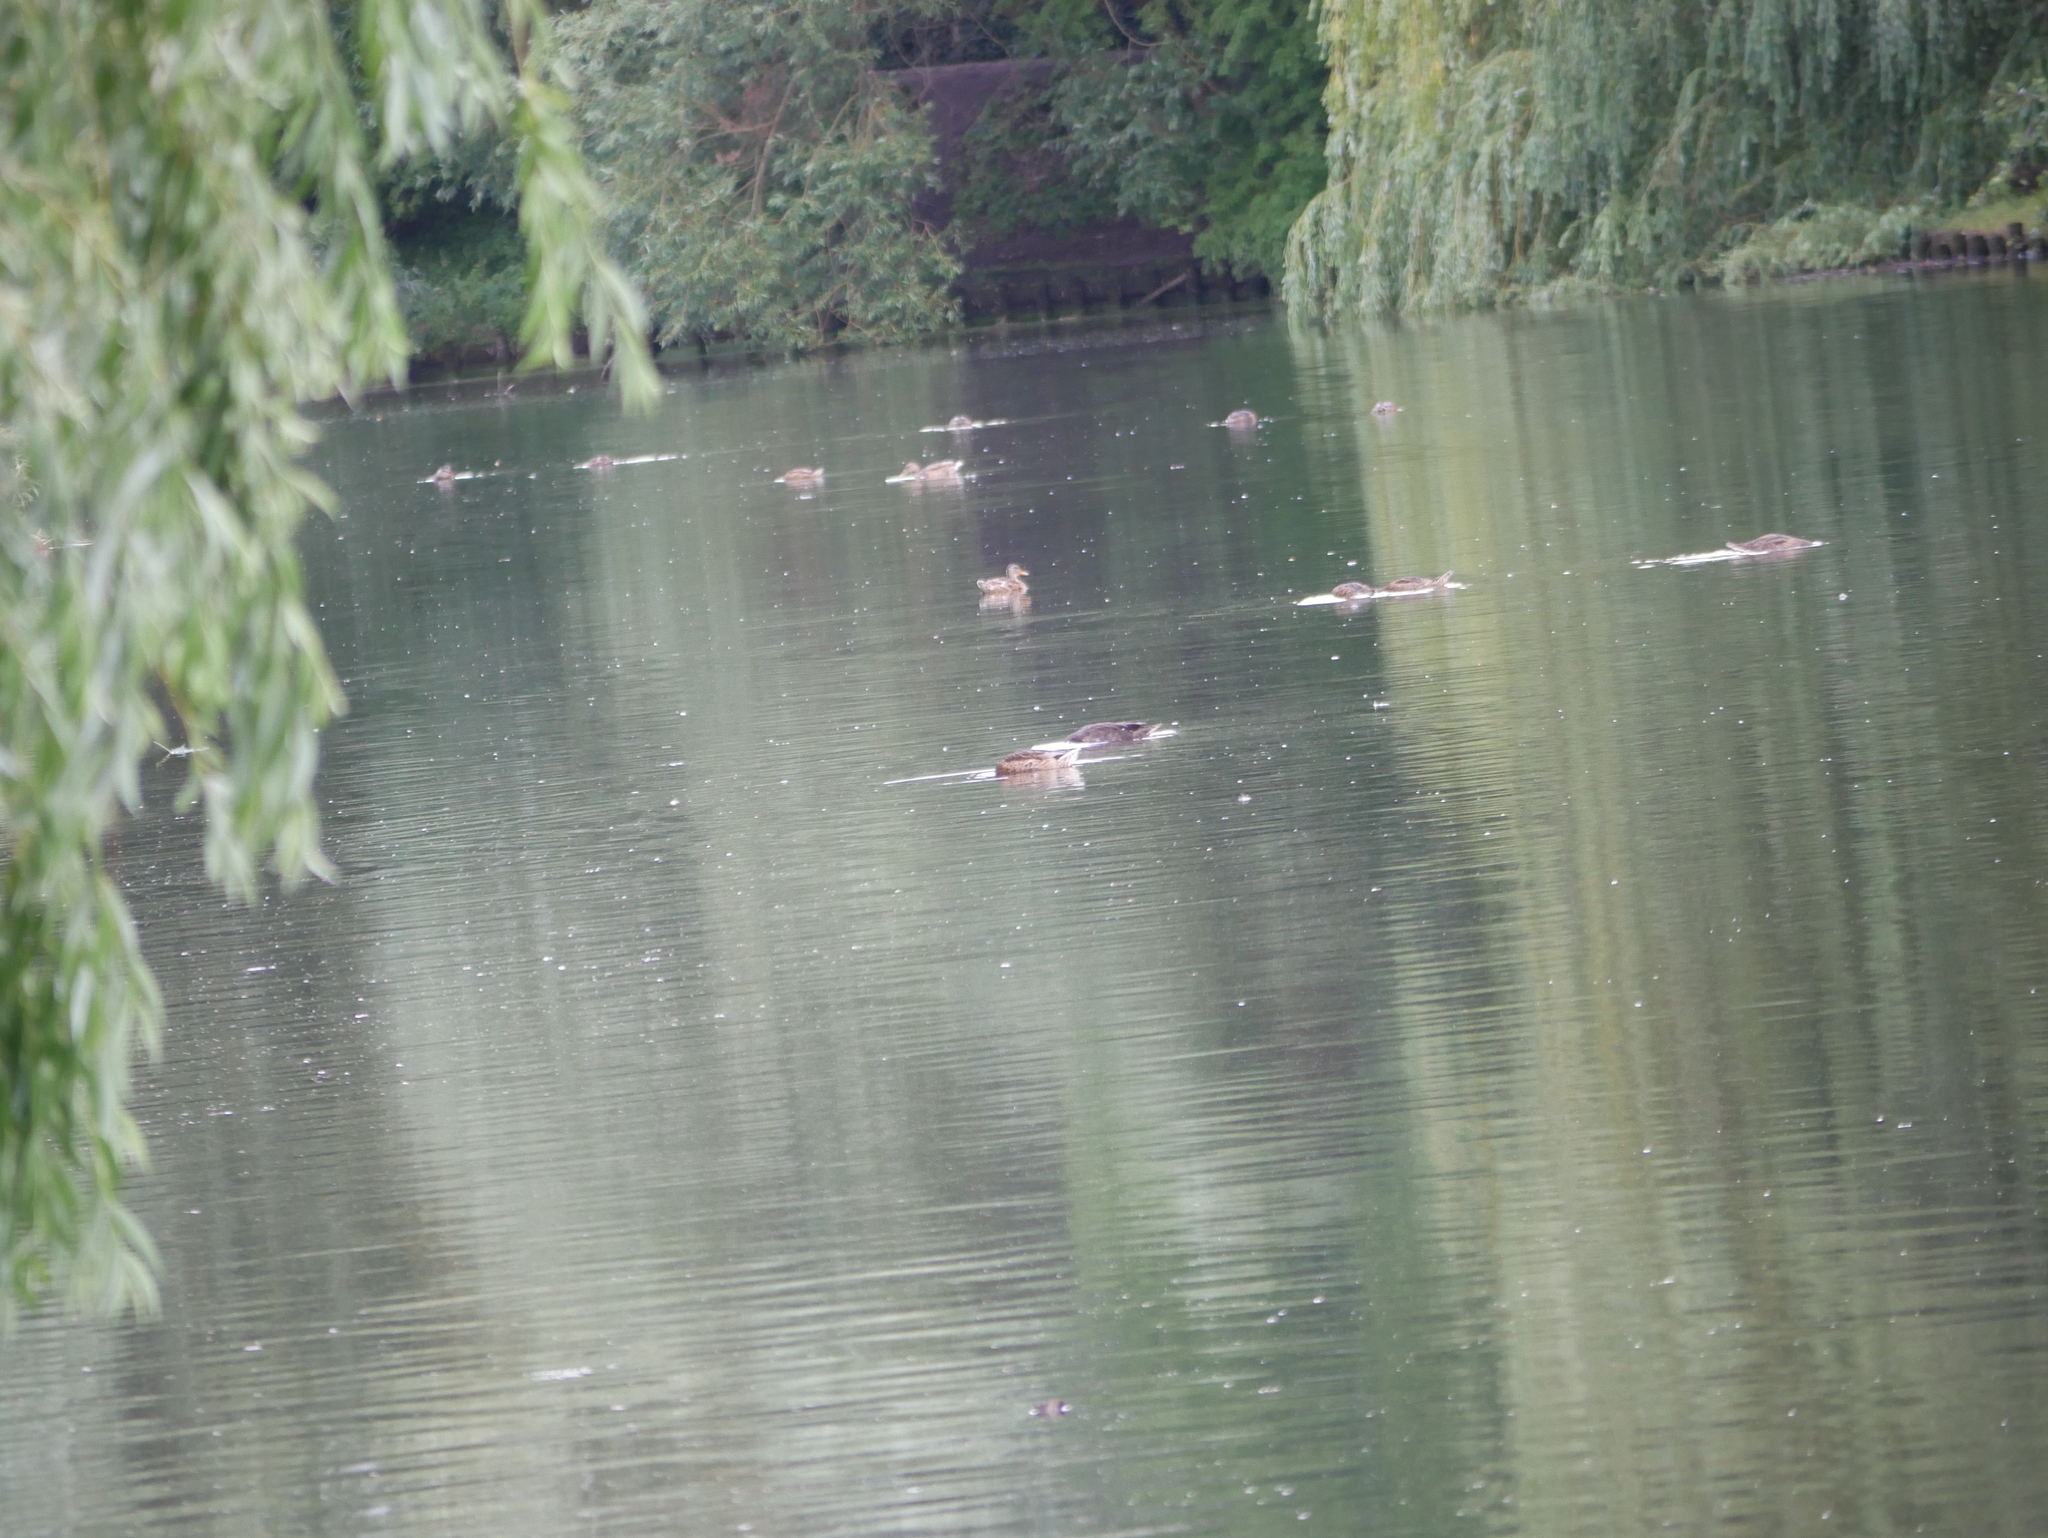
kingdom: Animalia
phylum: Chordata
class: Aves
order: Anseriformes
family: Anatidae
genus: Anas
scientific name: Anas platyrhynchos
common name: Mallard
